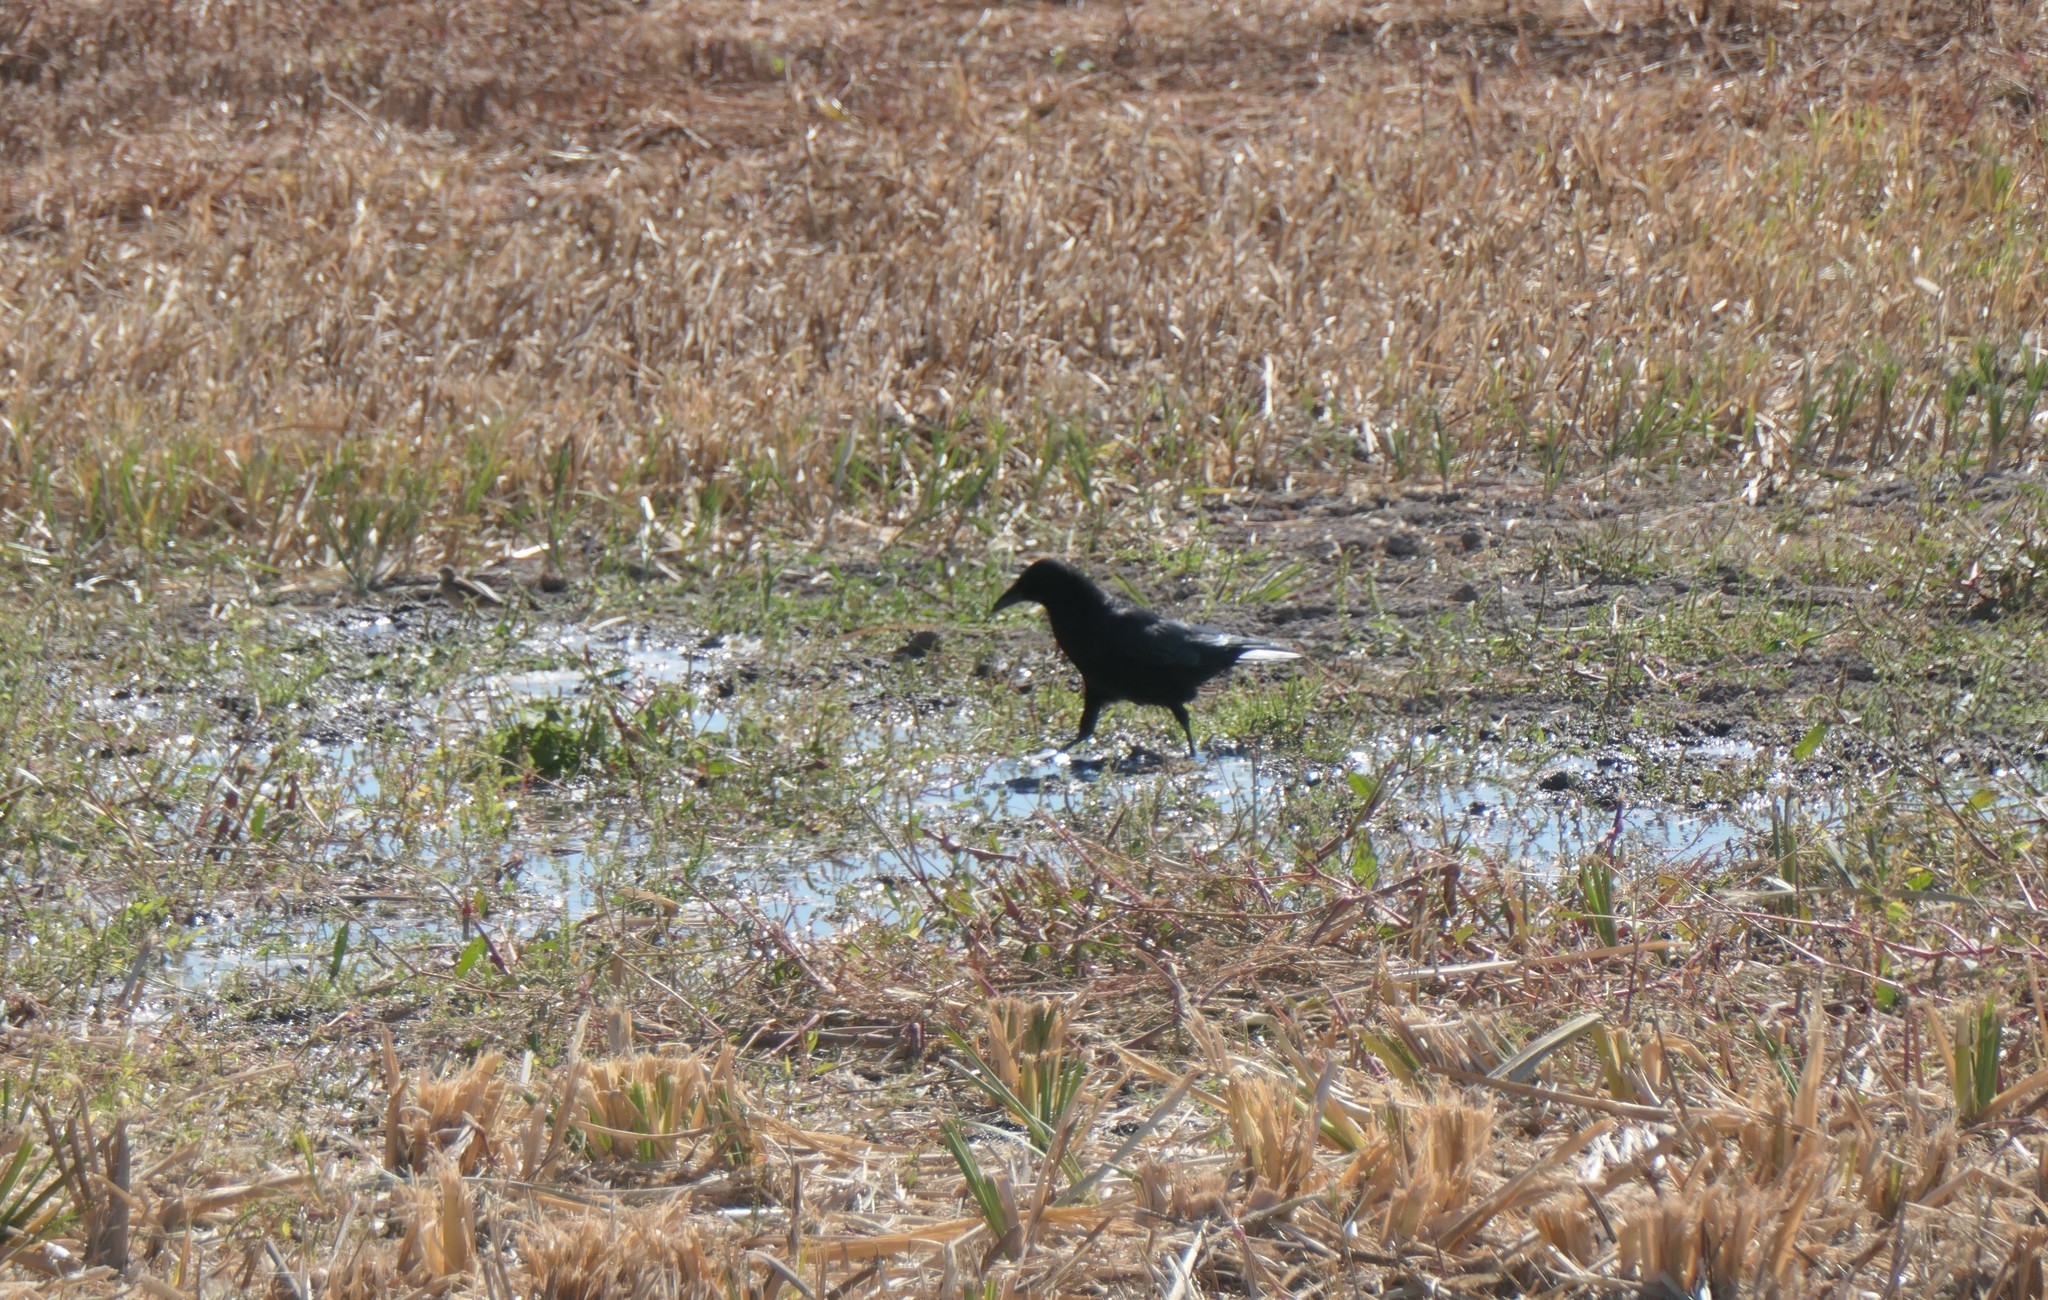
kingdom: Animalia
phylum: Chordata
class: Aves
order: Passeriformes
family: Corvidae
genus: Corvus
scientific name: Corvus brachyrhynchos
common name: American crow
